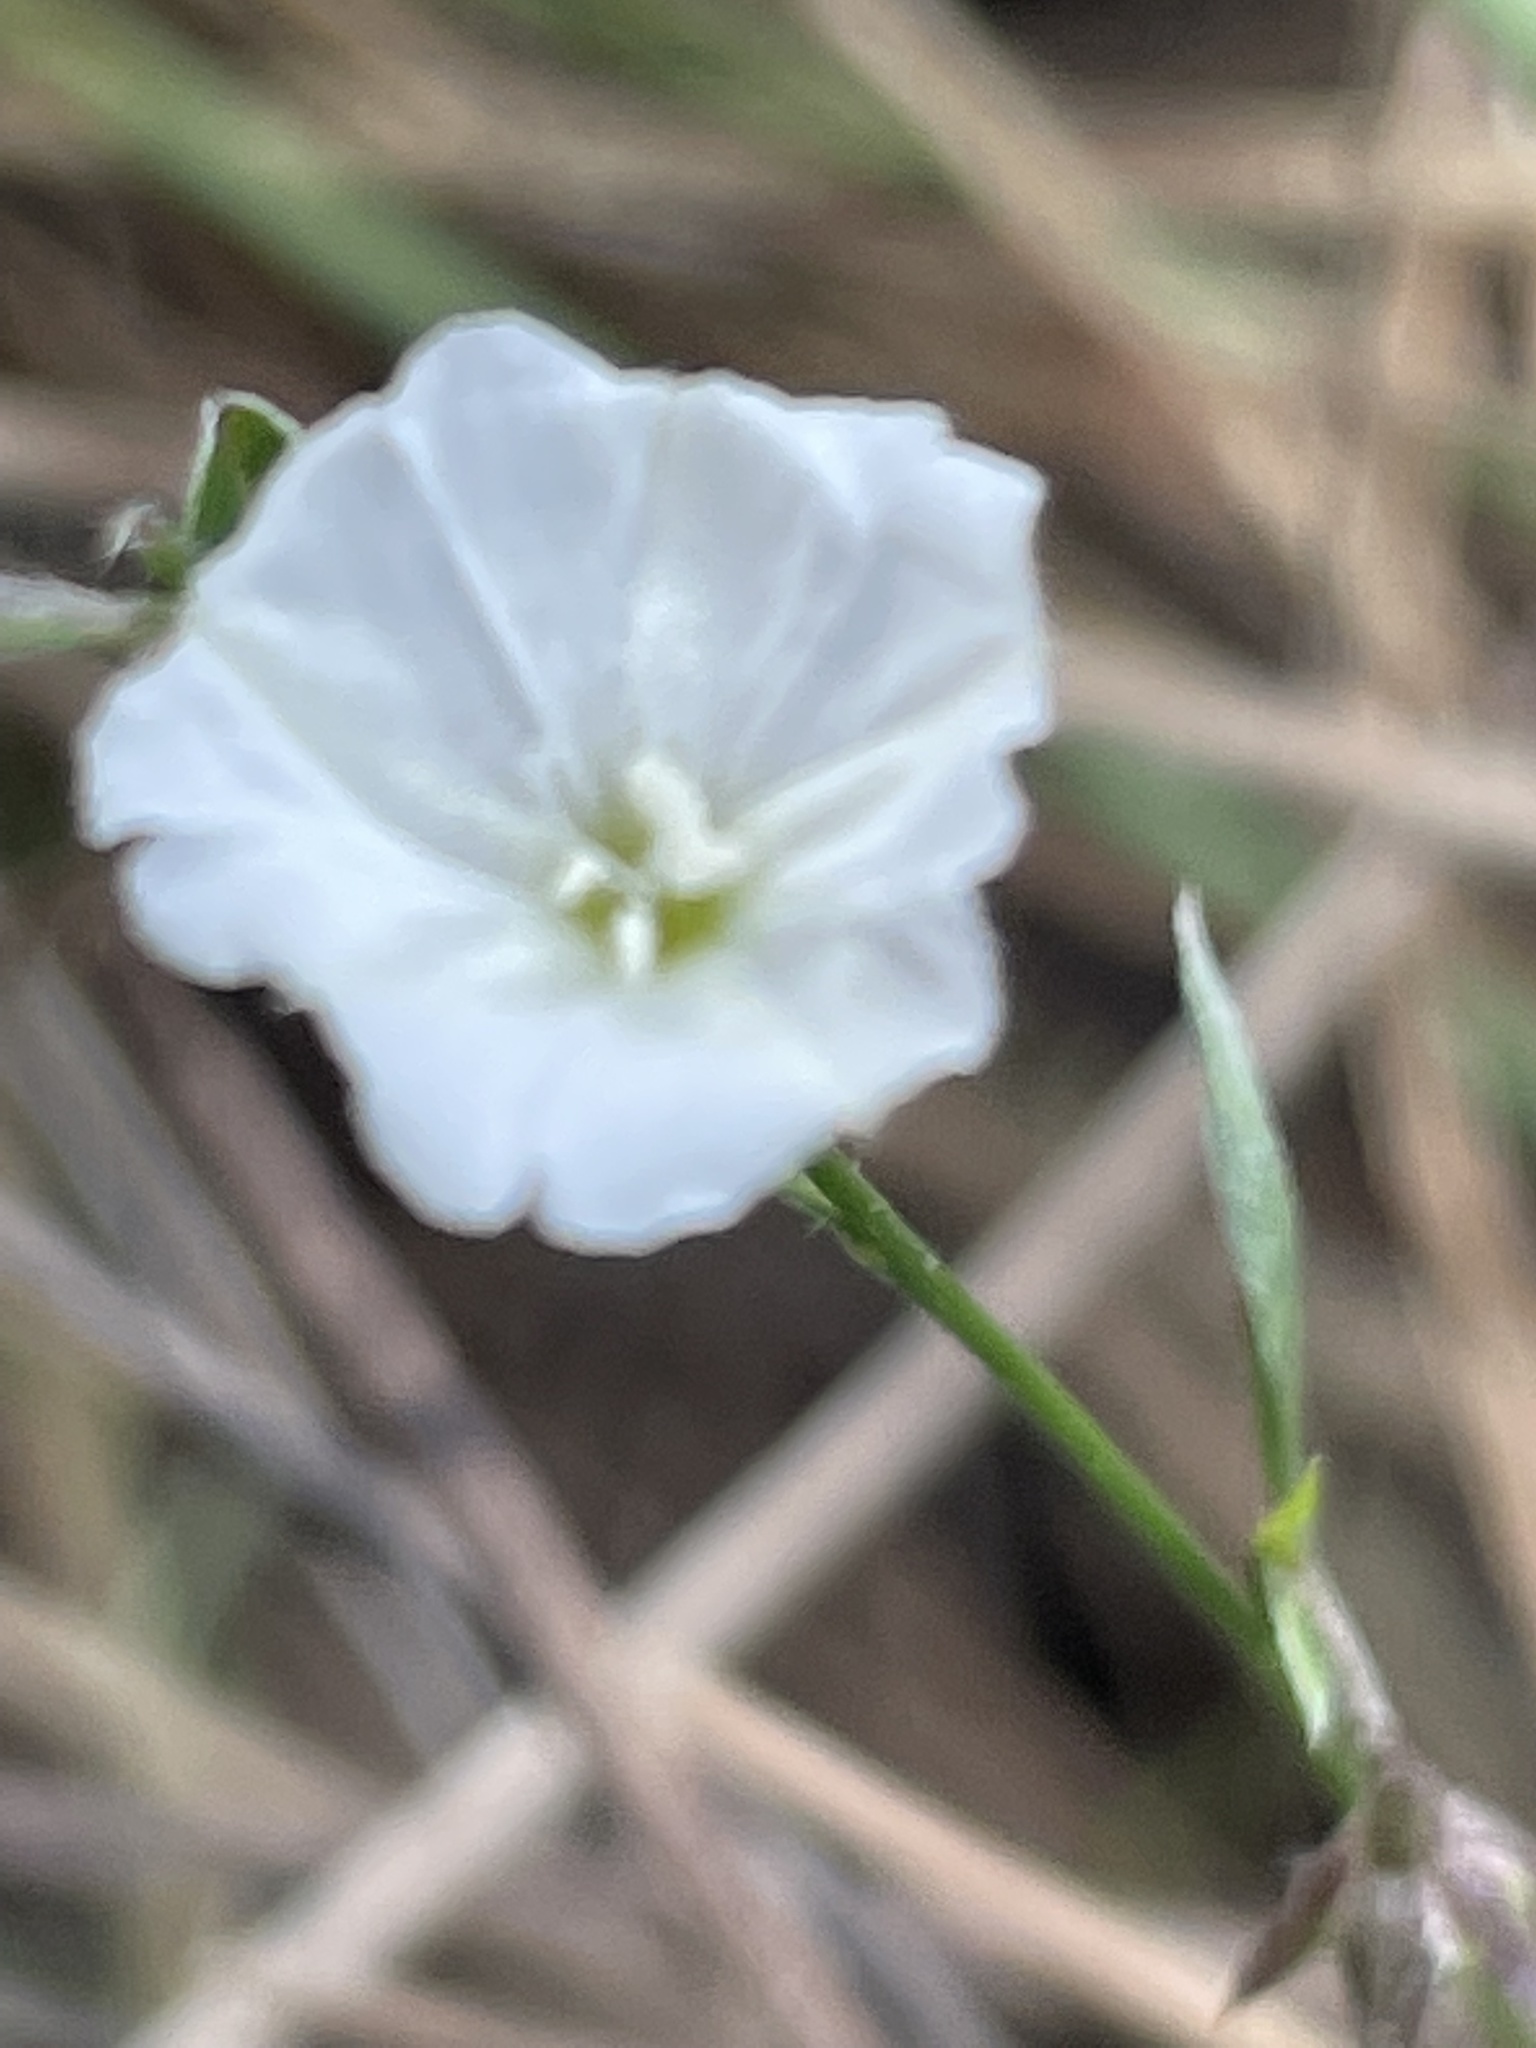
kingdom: Plantae
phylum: Tracheophyta
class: Magnoliopsida
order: Solanales
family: Convolvulaceae
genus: Evolvulus
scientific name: Evolvulus sericeus
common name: Blue dots
